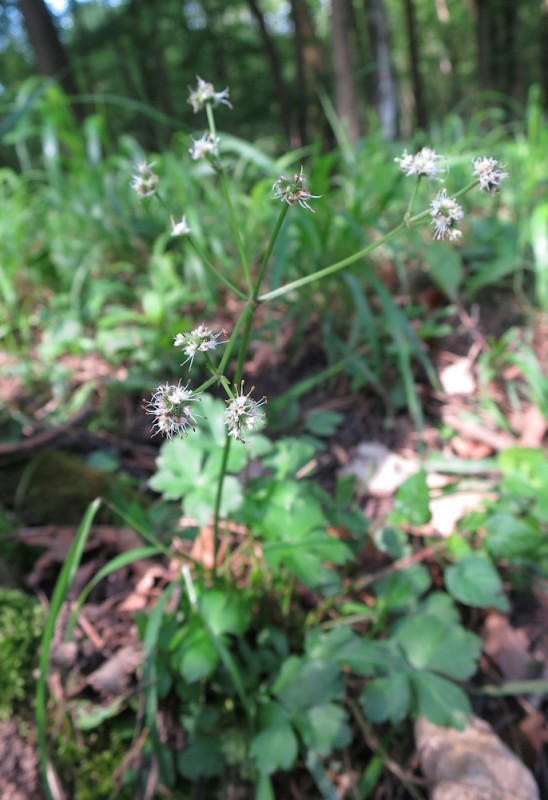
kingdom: Plantae
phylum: Tracheophyta
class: Magnoliopsida
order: Apiales
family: Apiaceae
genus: Sanicula
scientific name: Sanicula europaea
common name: Sanicle
